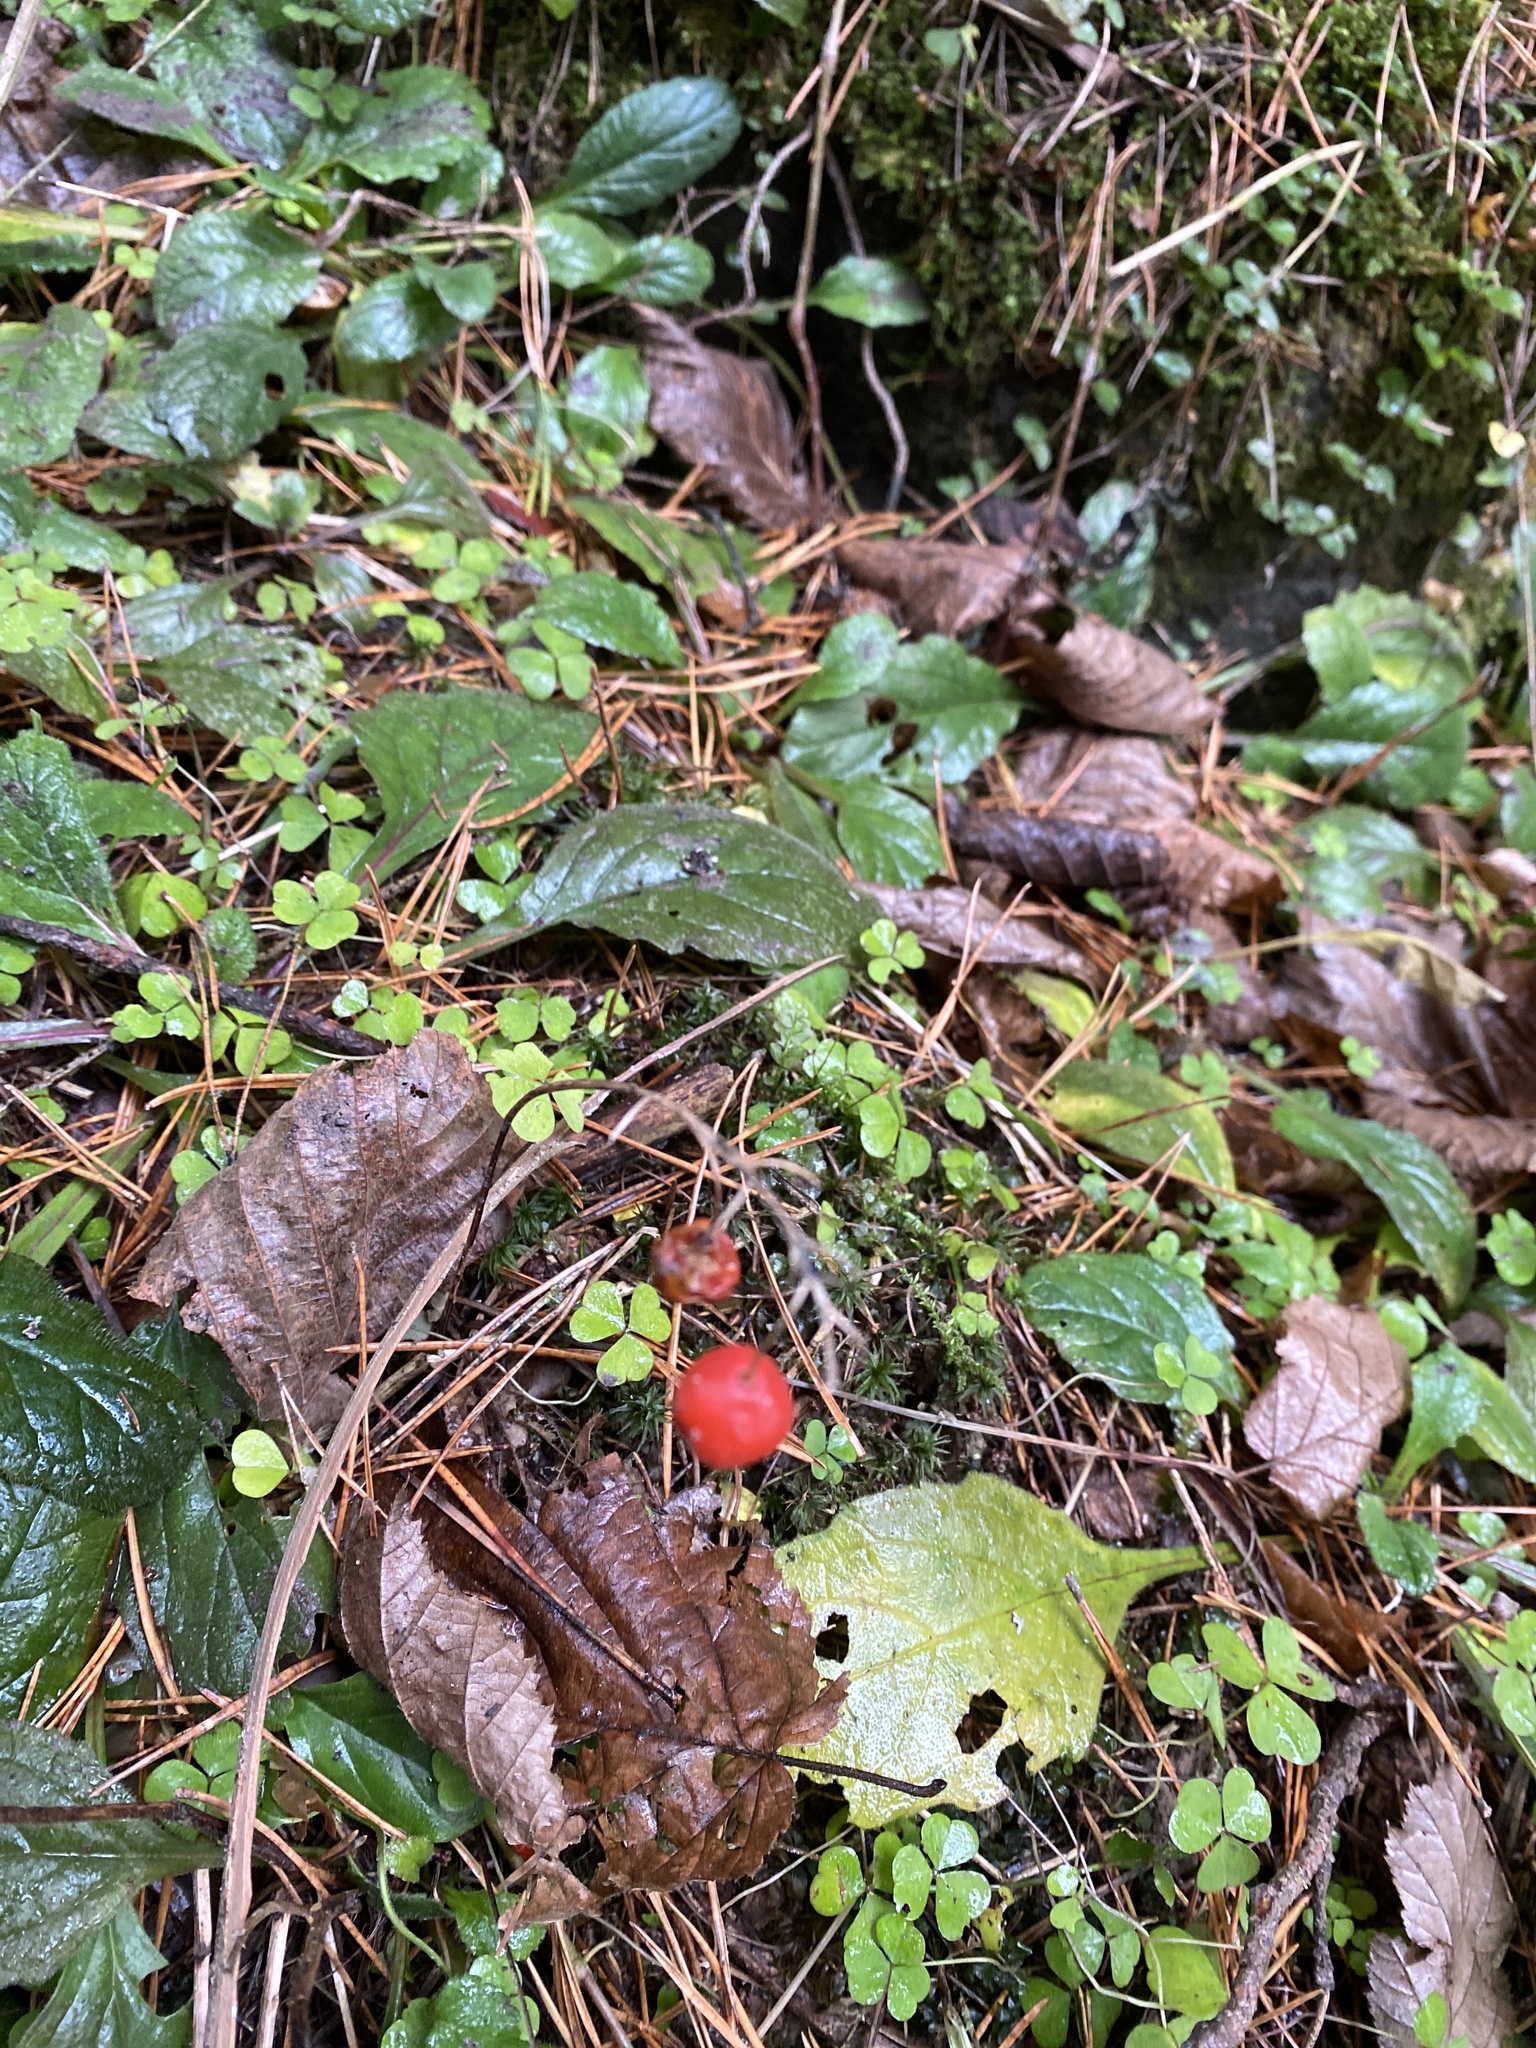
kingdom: Plantae
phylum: Tracheophyta
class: Liliopsida
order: Asparagales
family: Asparagaceae
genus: Convallaria
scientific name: Convallaria majalis
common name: Lily-of-the-valley
